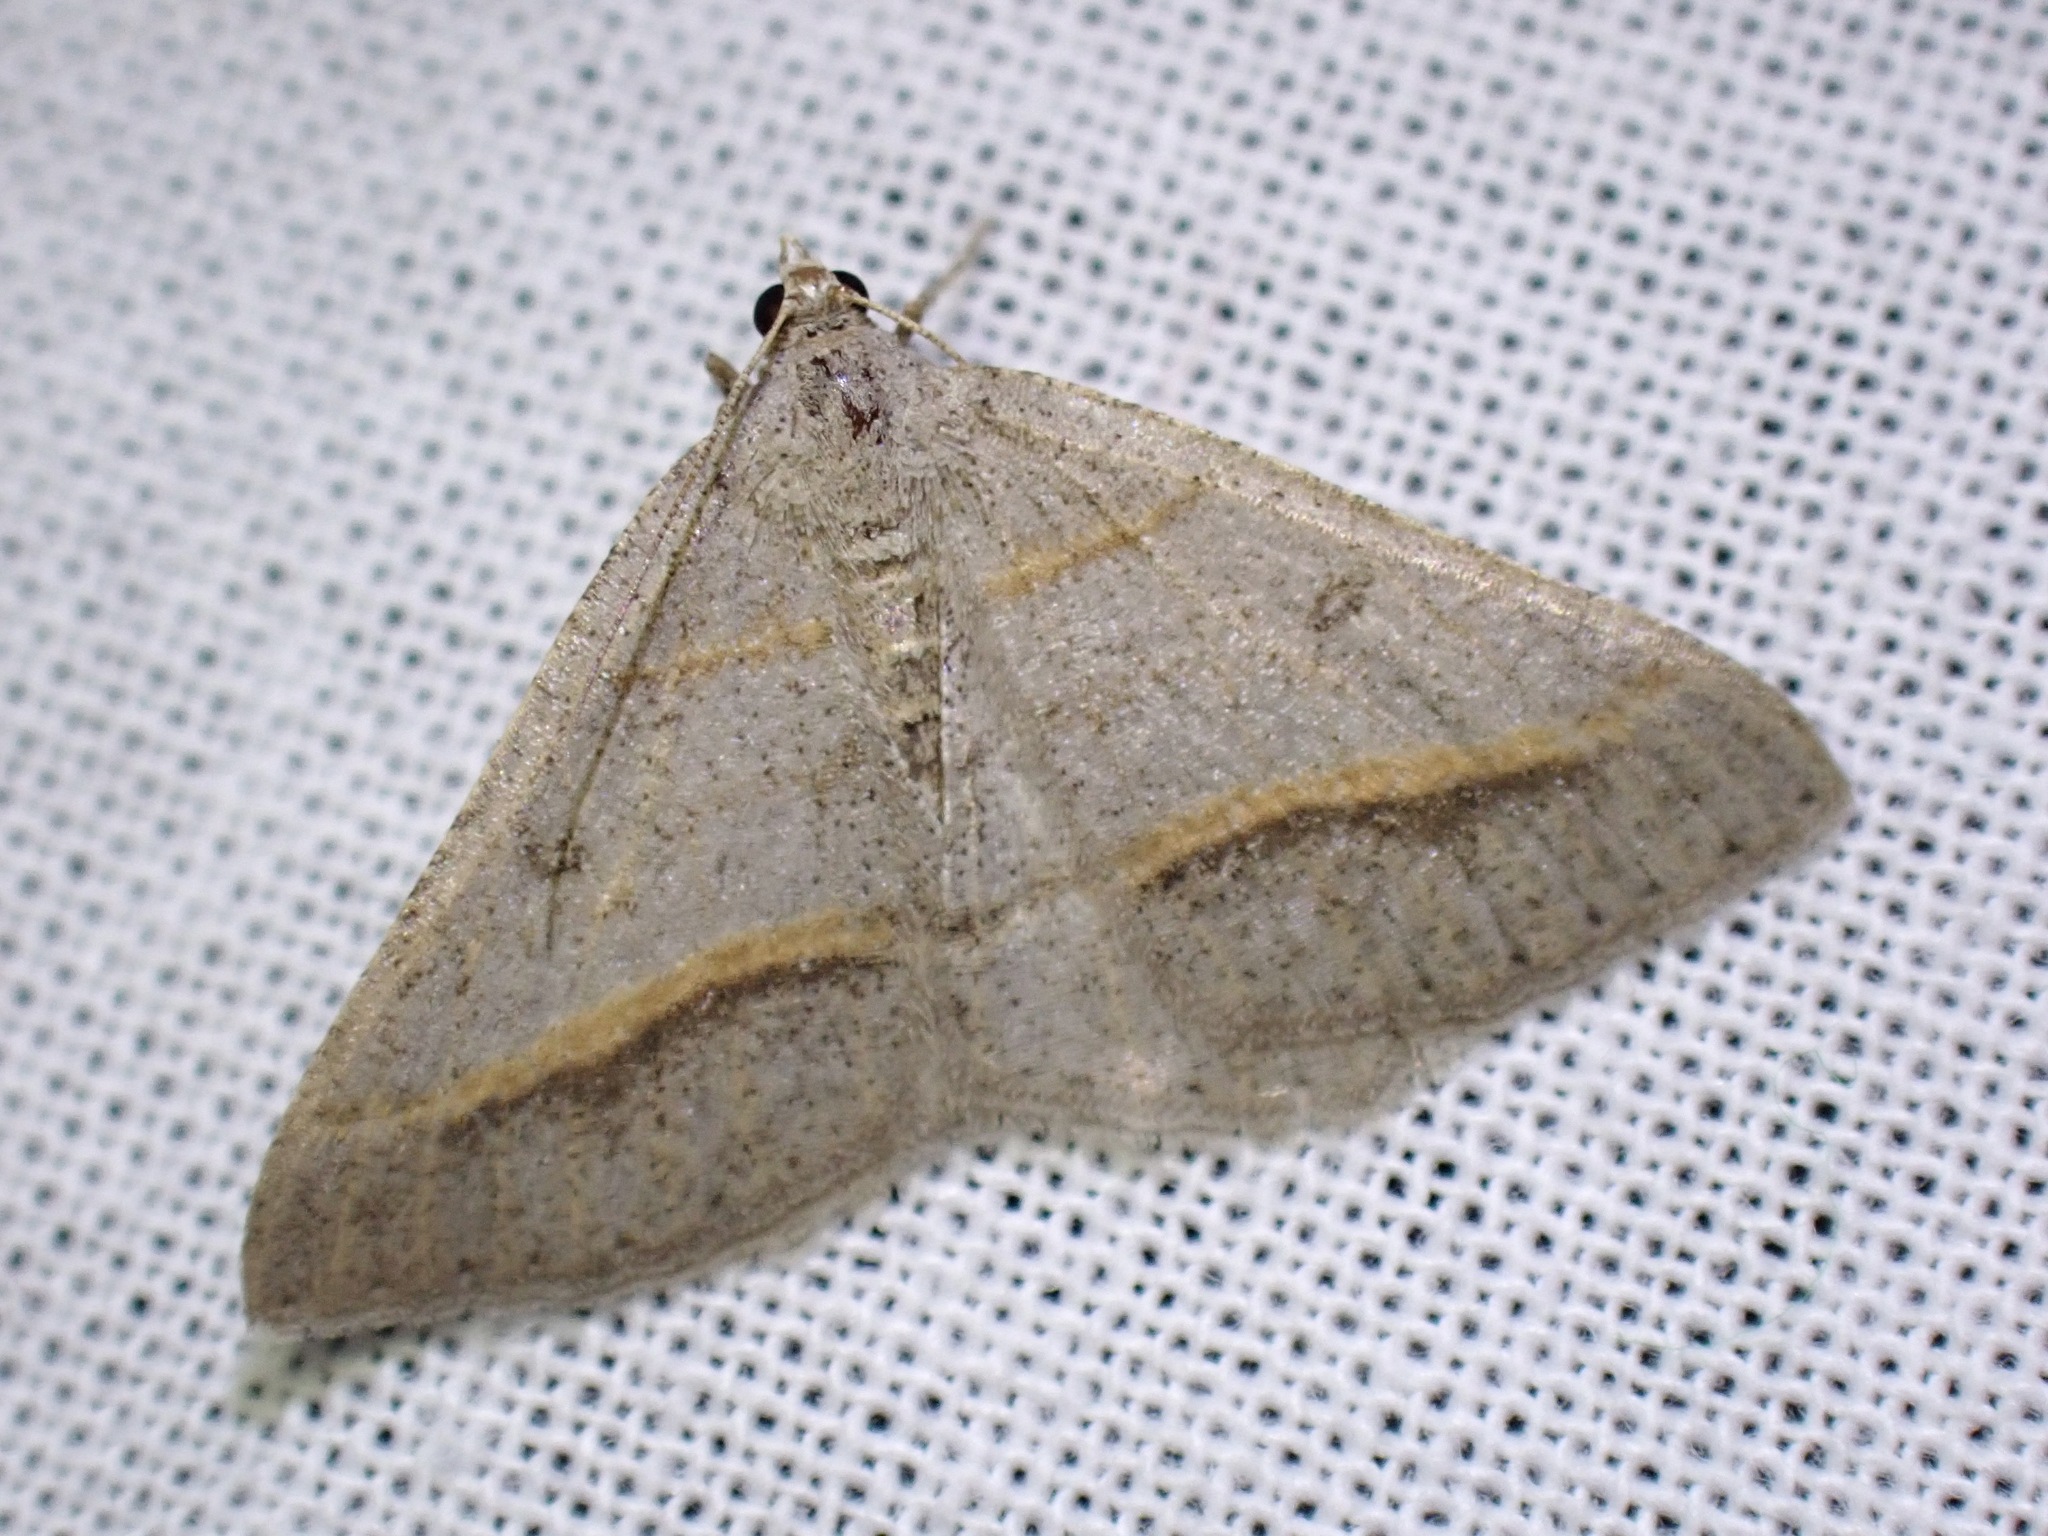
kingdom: Animalia
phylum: Arthropoda
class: Insecta
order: Lepidoptera
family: Geometridae
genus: Digrammia
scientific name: Digrammia neptaria
